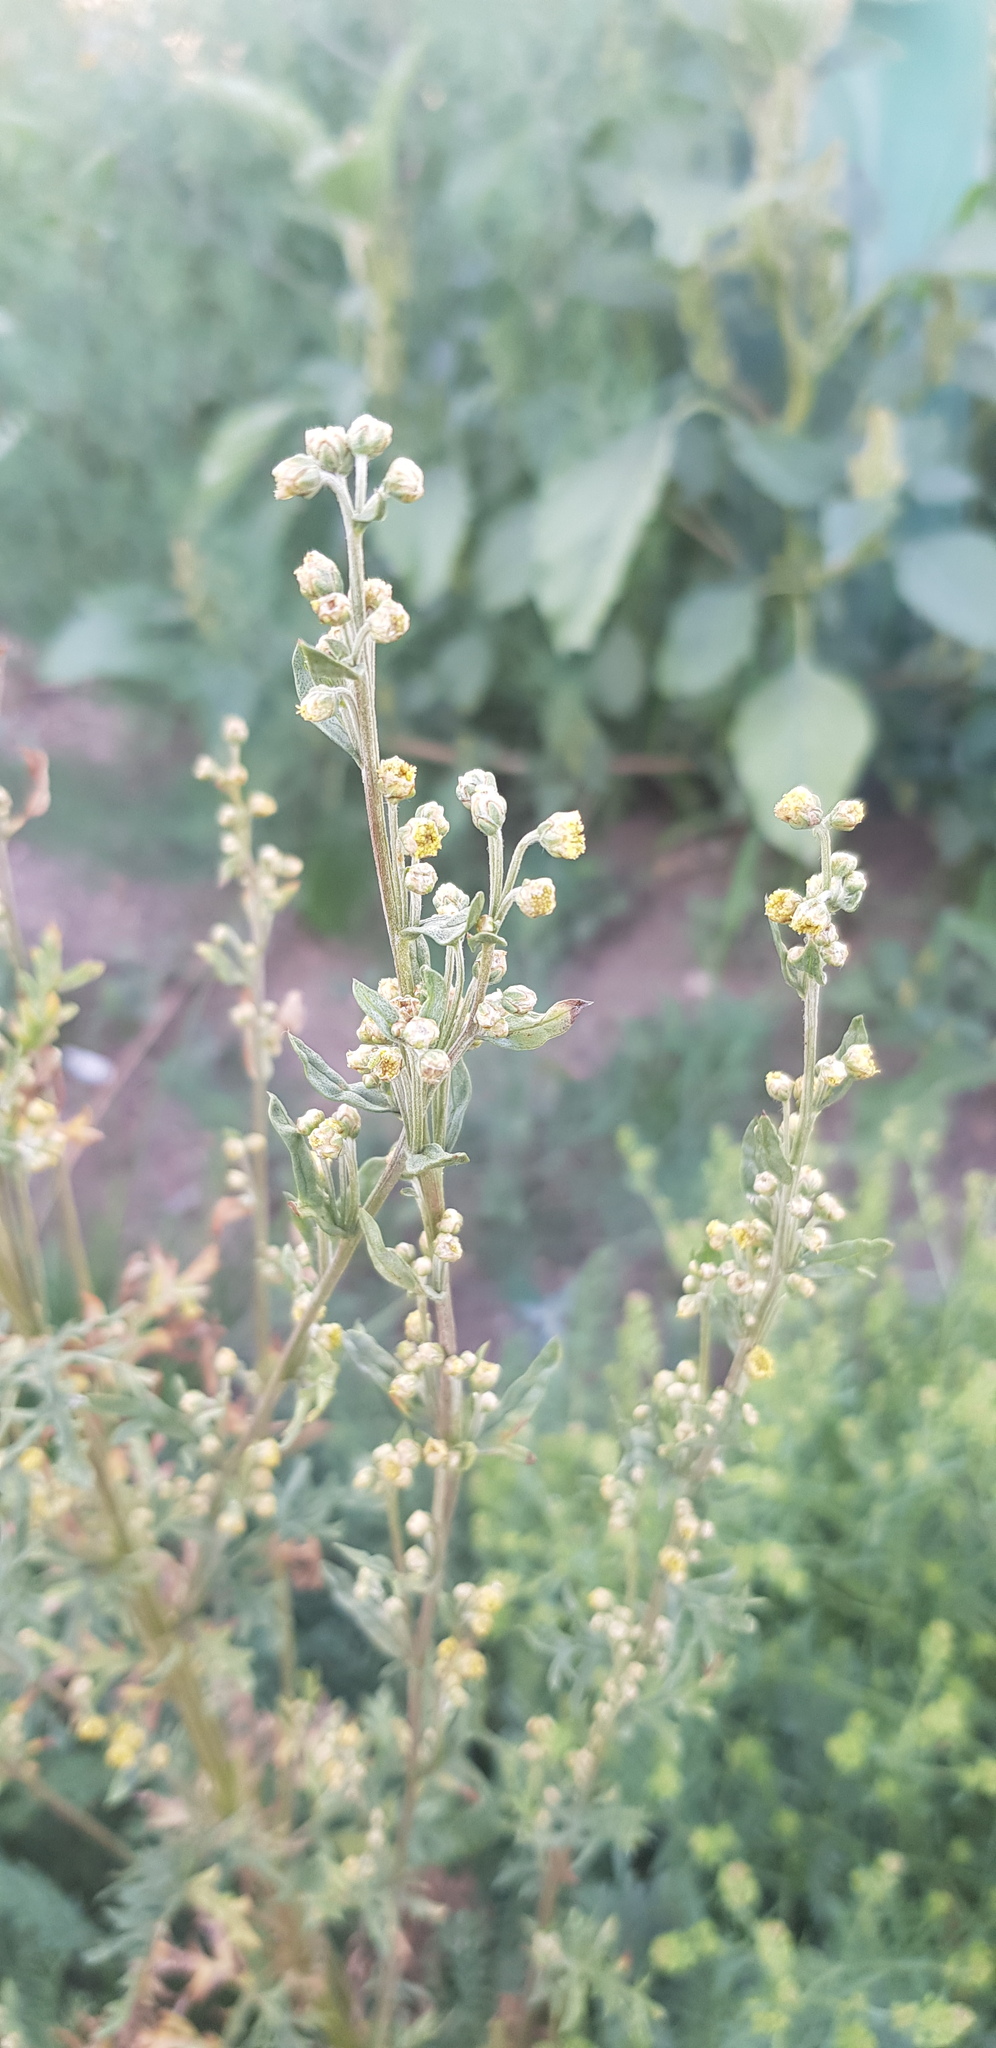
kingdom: Plantae
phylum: Tracheophyta
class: Magnoliopsida
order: Asterales
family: Asteraceae
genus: Artemisia
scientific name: Artemisia vulgaris
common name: Mugwort
